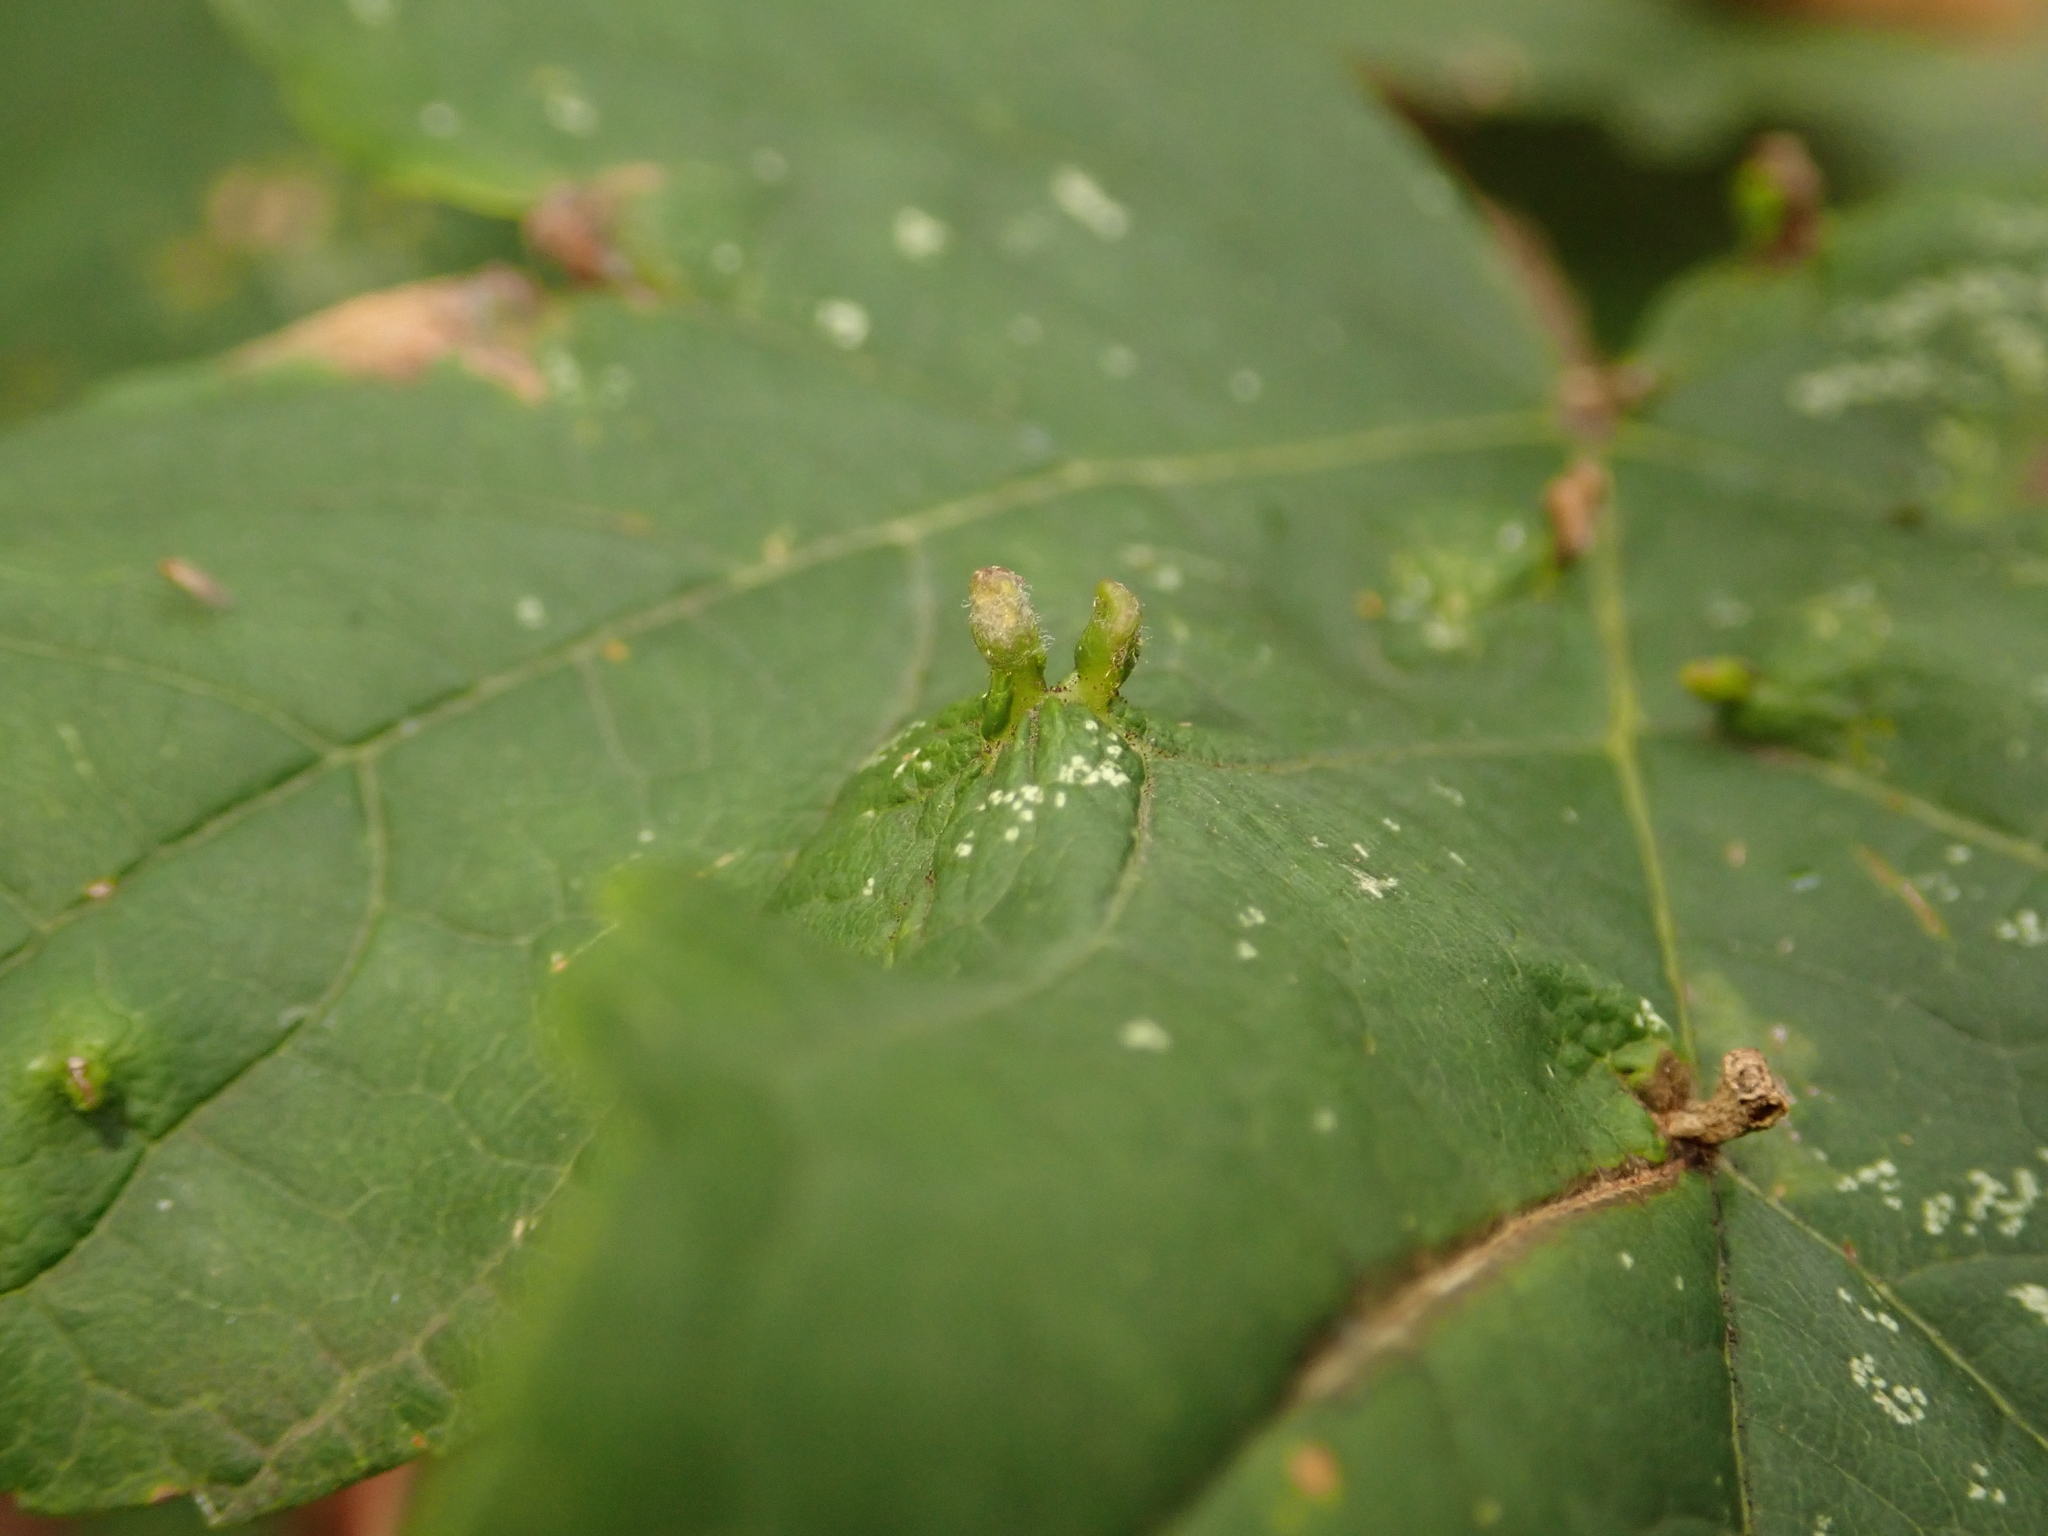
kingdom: Animalia
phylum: Arthropoda
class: Arachnida
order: Trombidiformes
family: Eriophyidae
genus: Aceria
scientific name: Aceria cephaloneus
